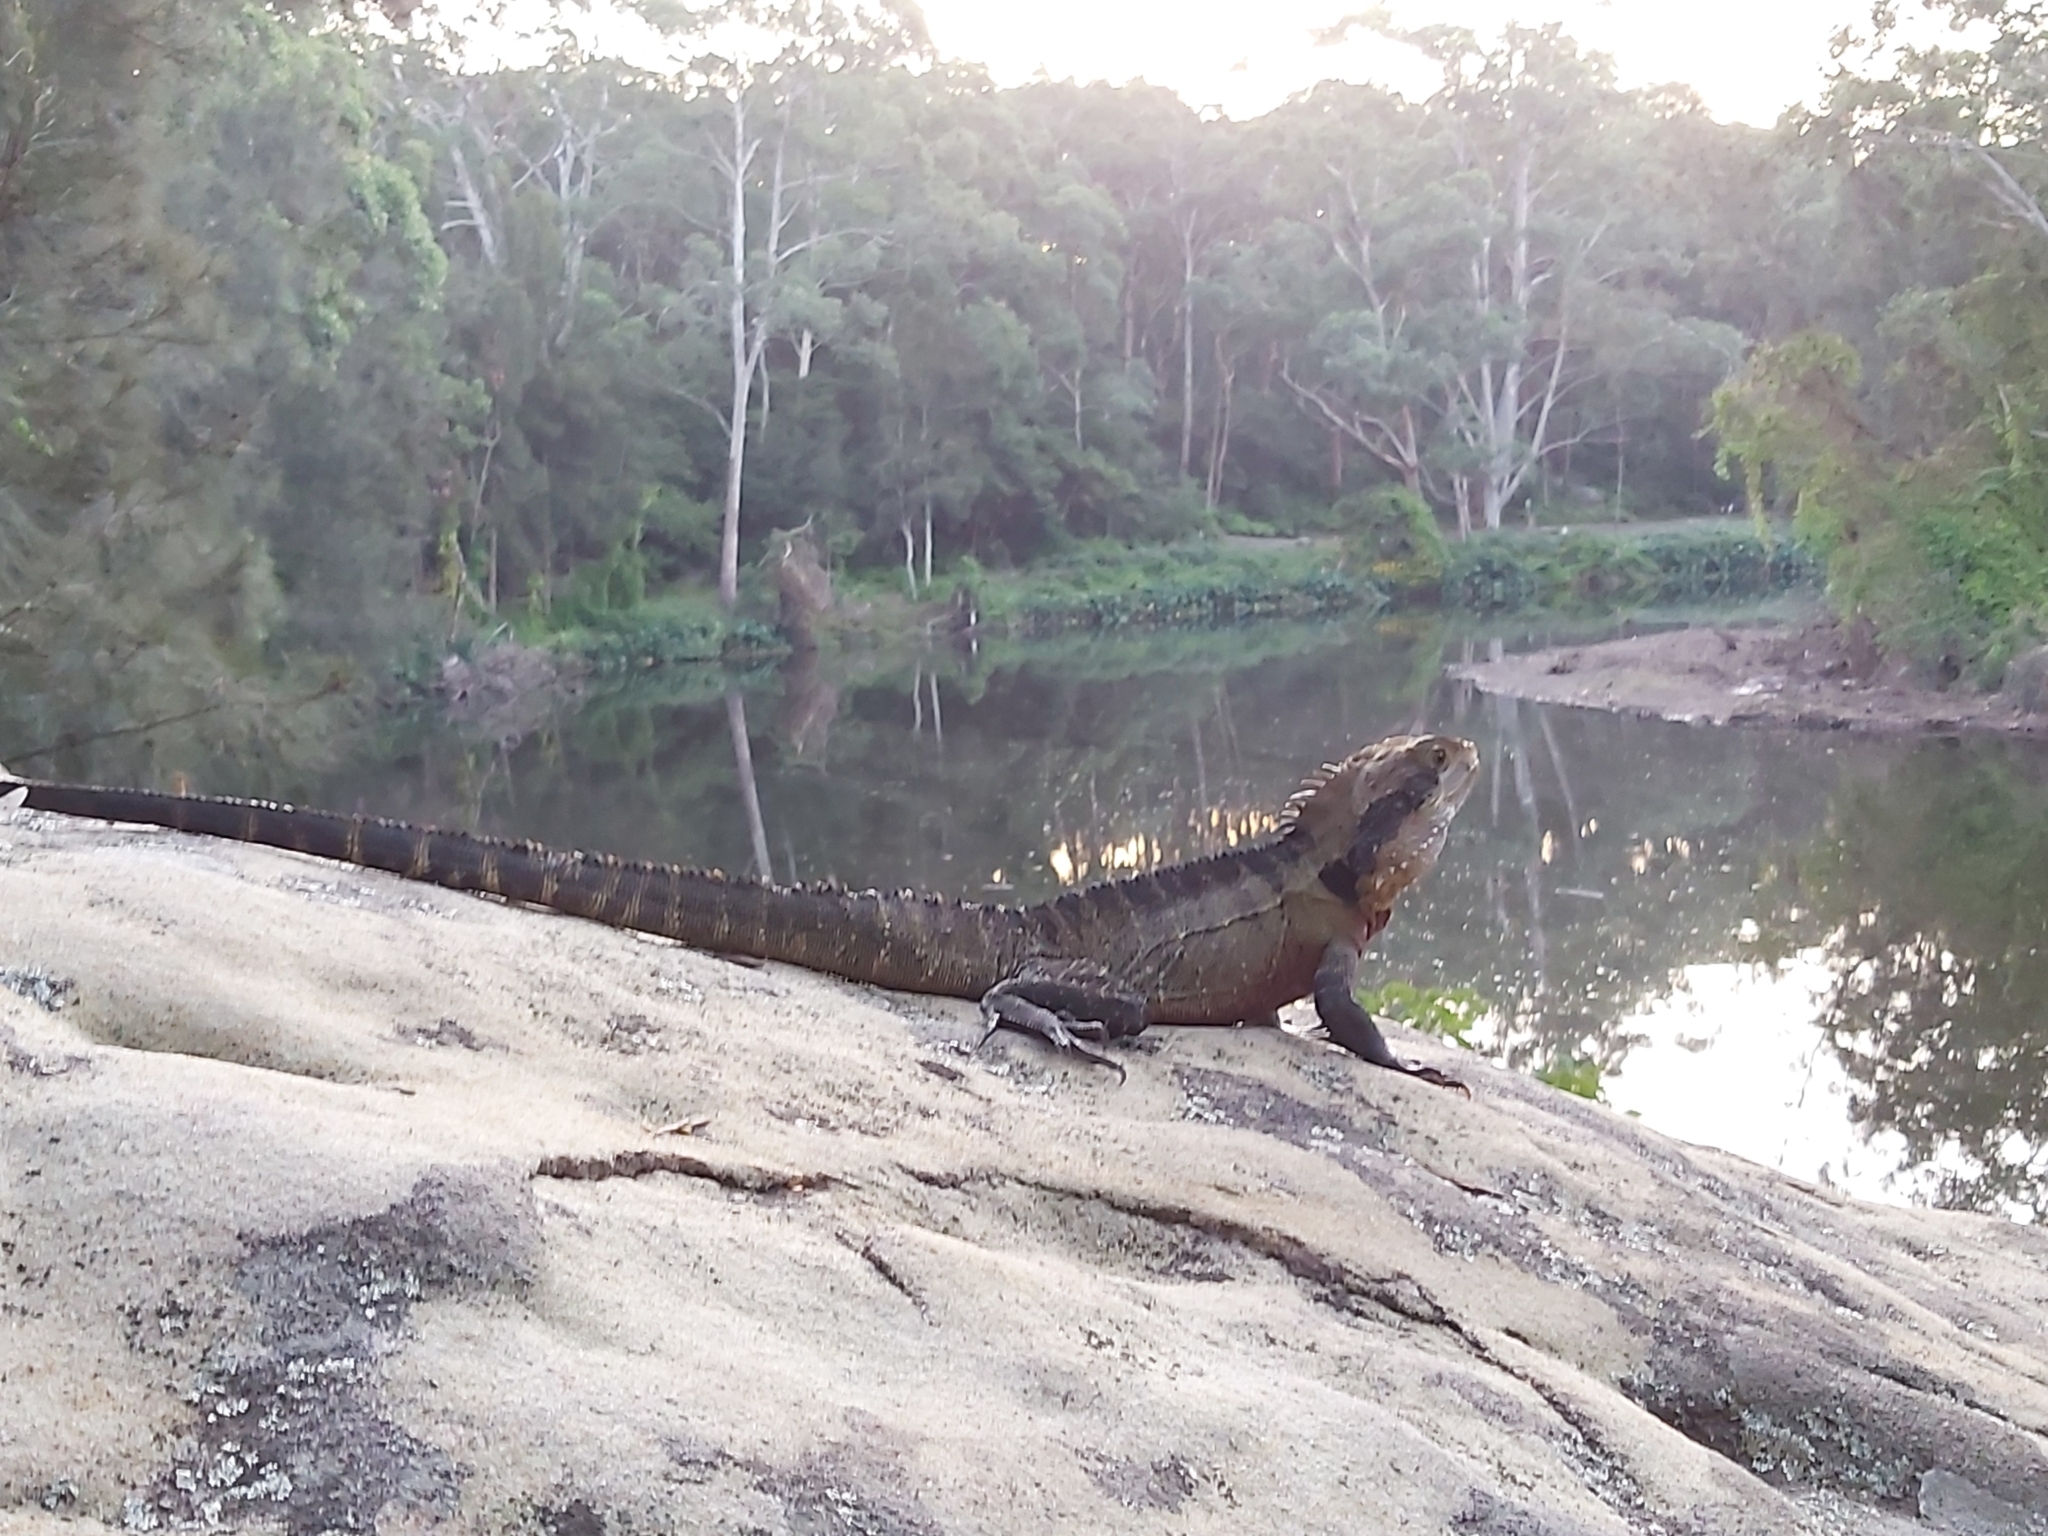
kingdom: Animalia
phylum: Chordata
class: Squamata
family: Agamidae
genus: Intellagama
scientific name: Intellagama lesueurii
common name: Eastern water dragon
